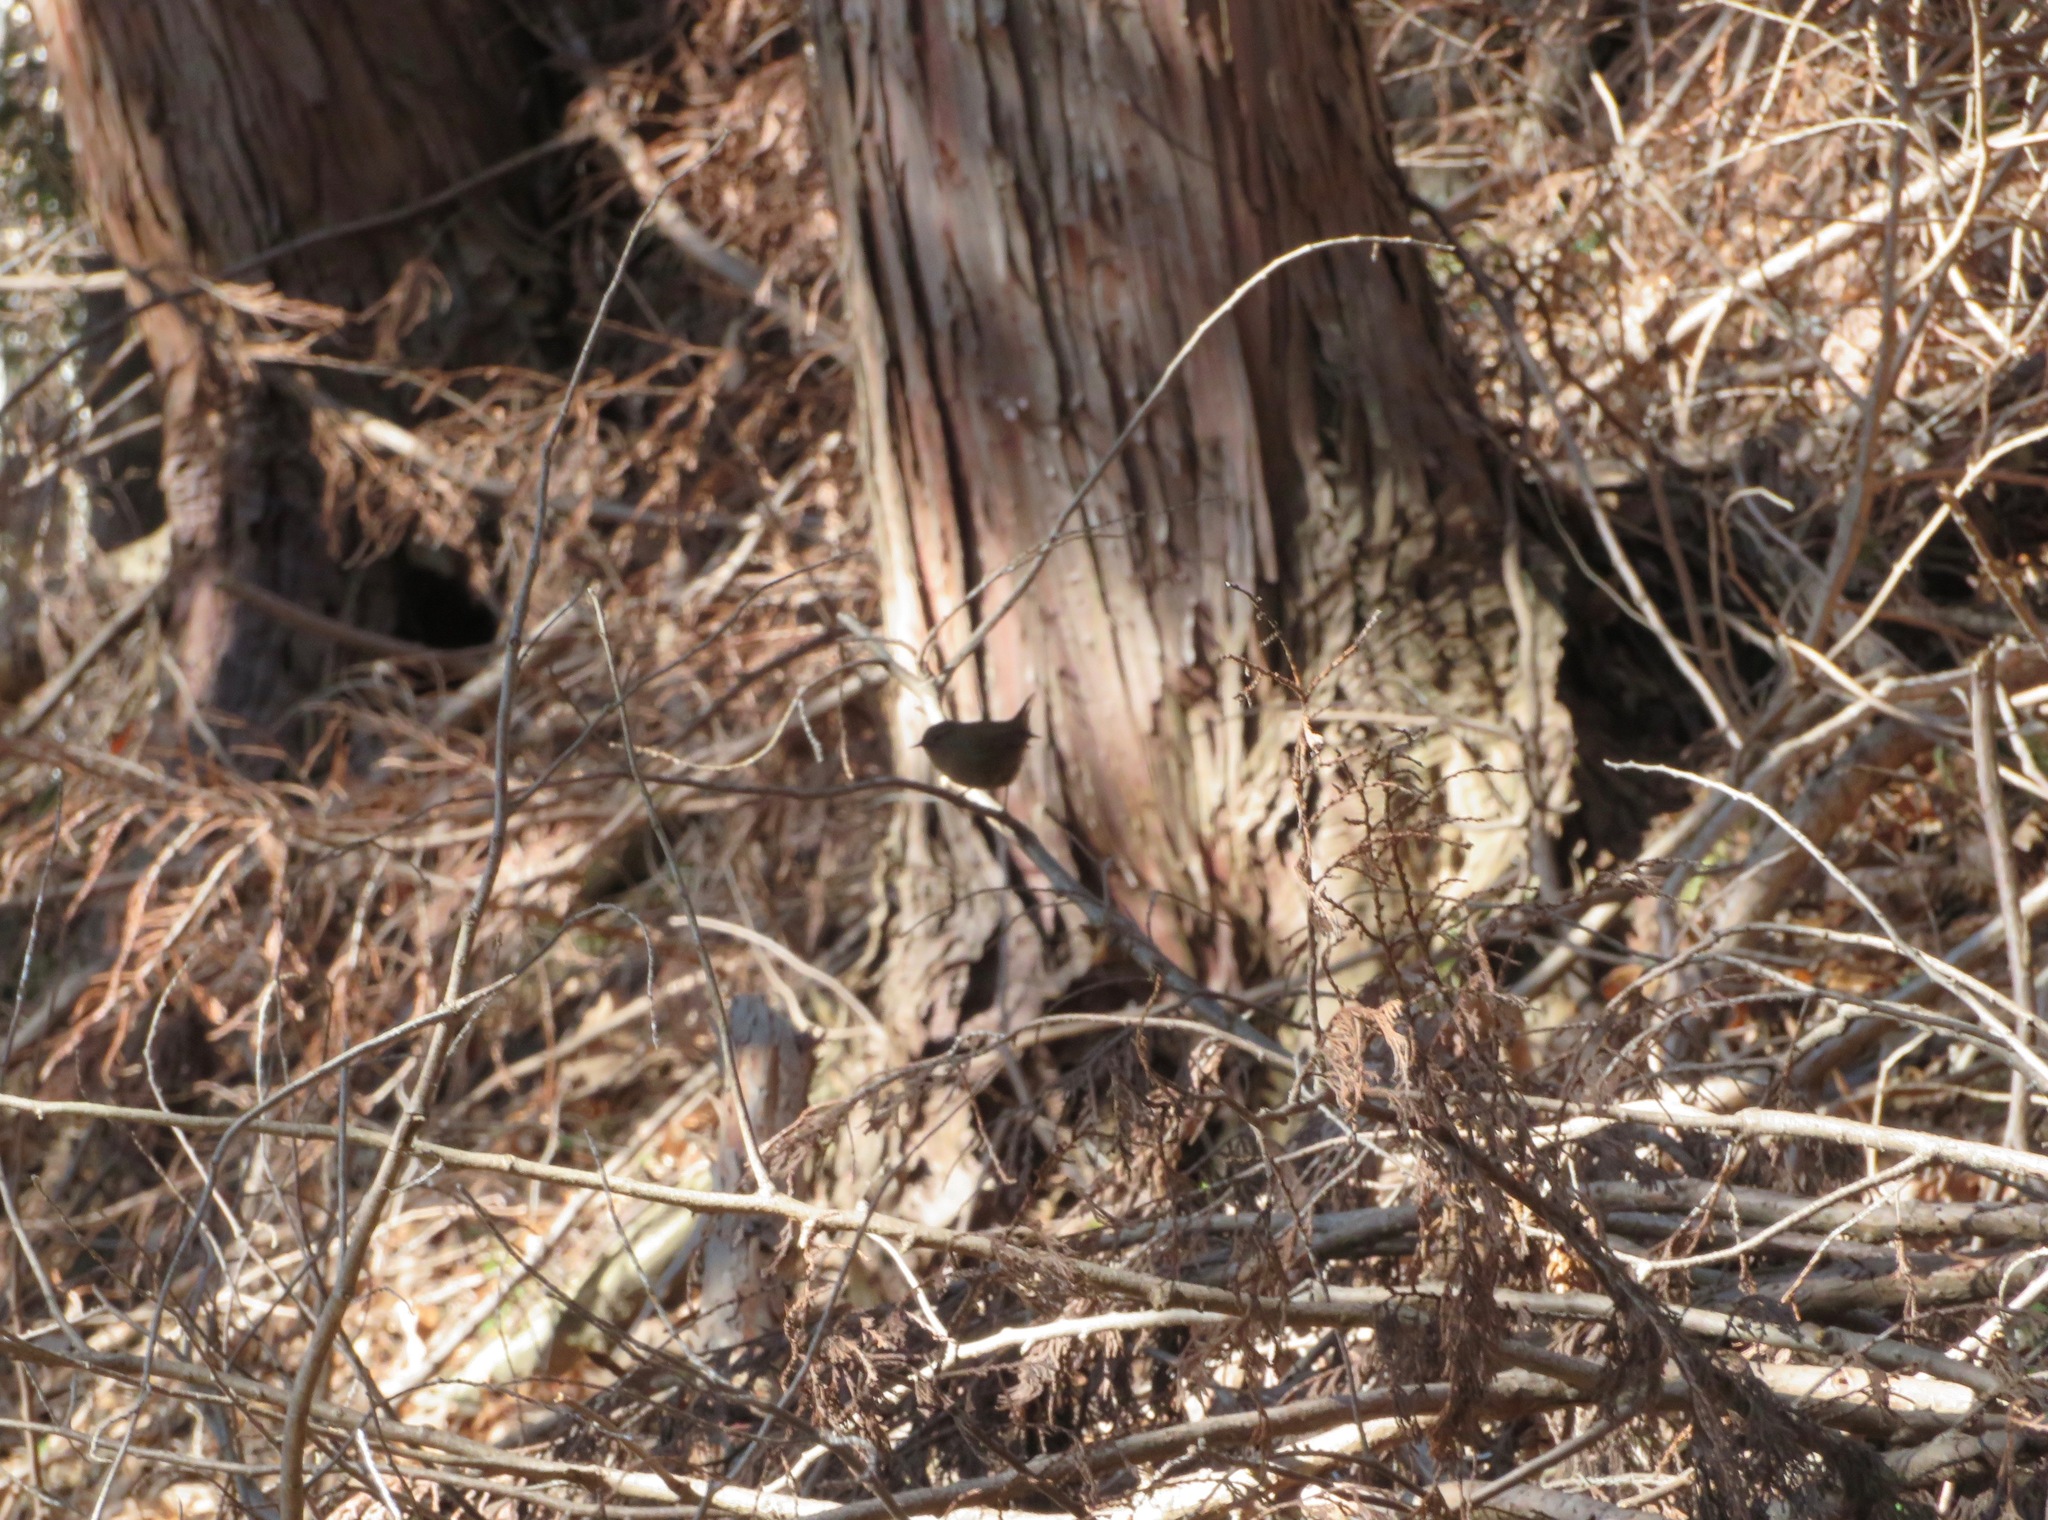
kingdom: Animalia
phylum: Chordata
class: Aves
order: Passeriformes
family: Troglodytidae
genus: Troglodytes
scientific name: Troglodytes troglodytes
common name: Eurasian wren
